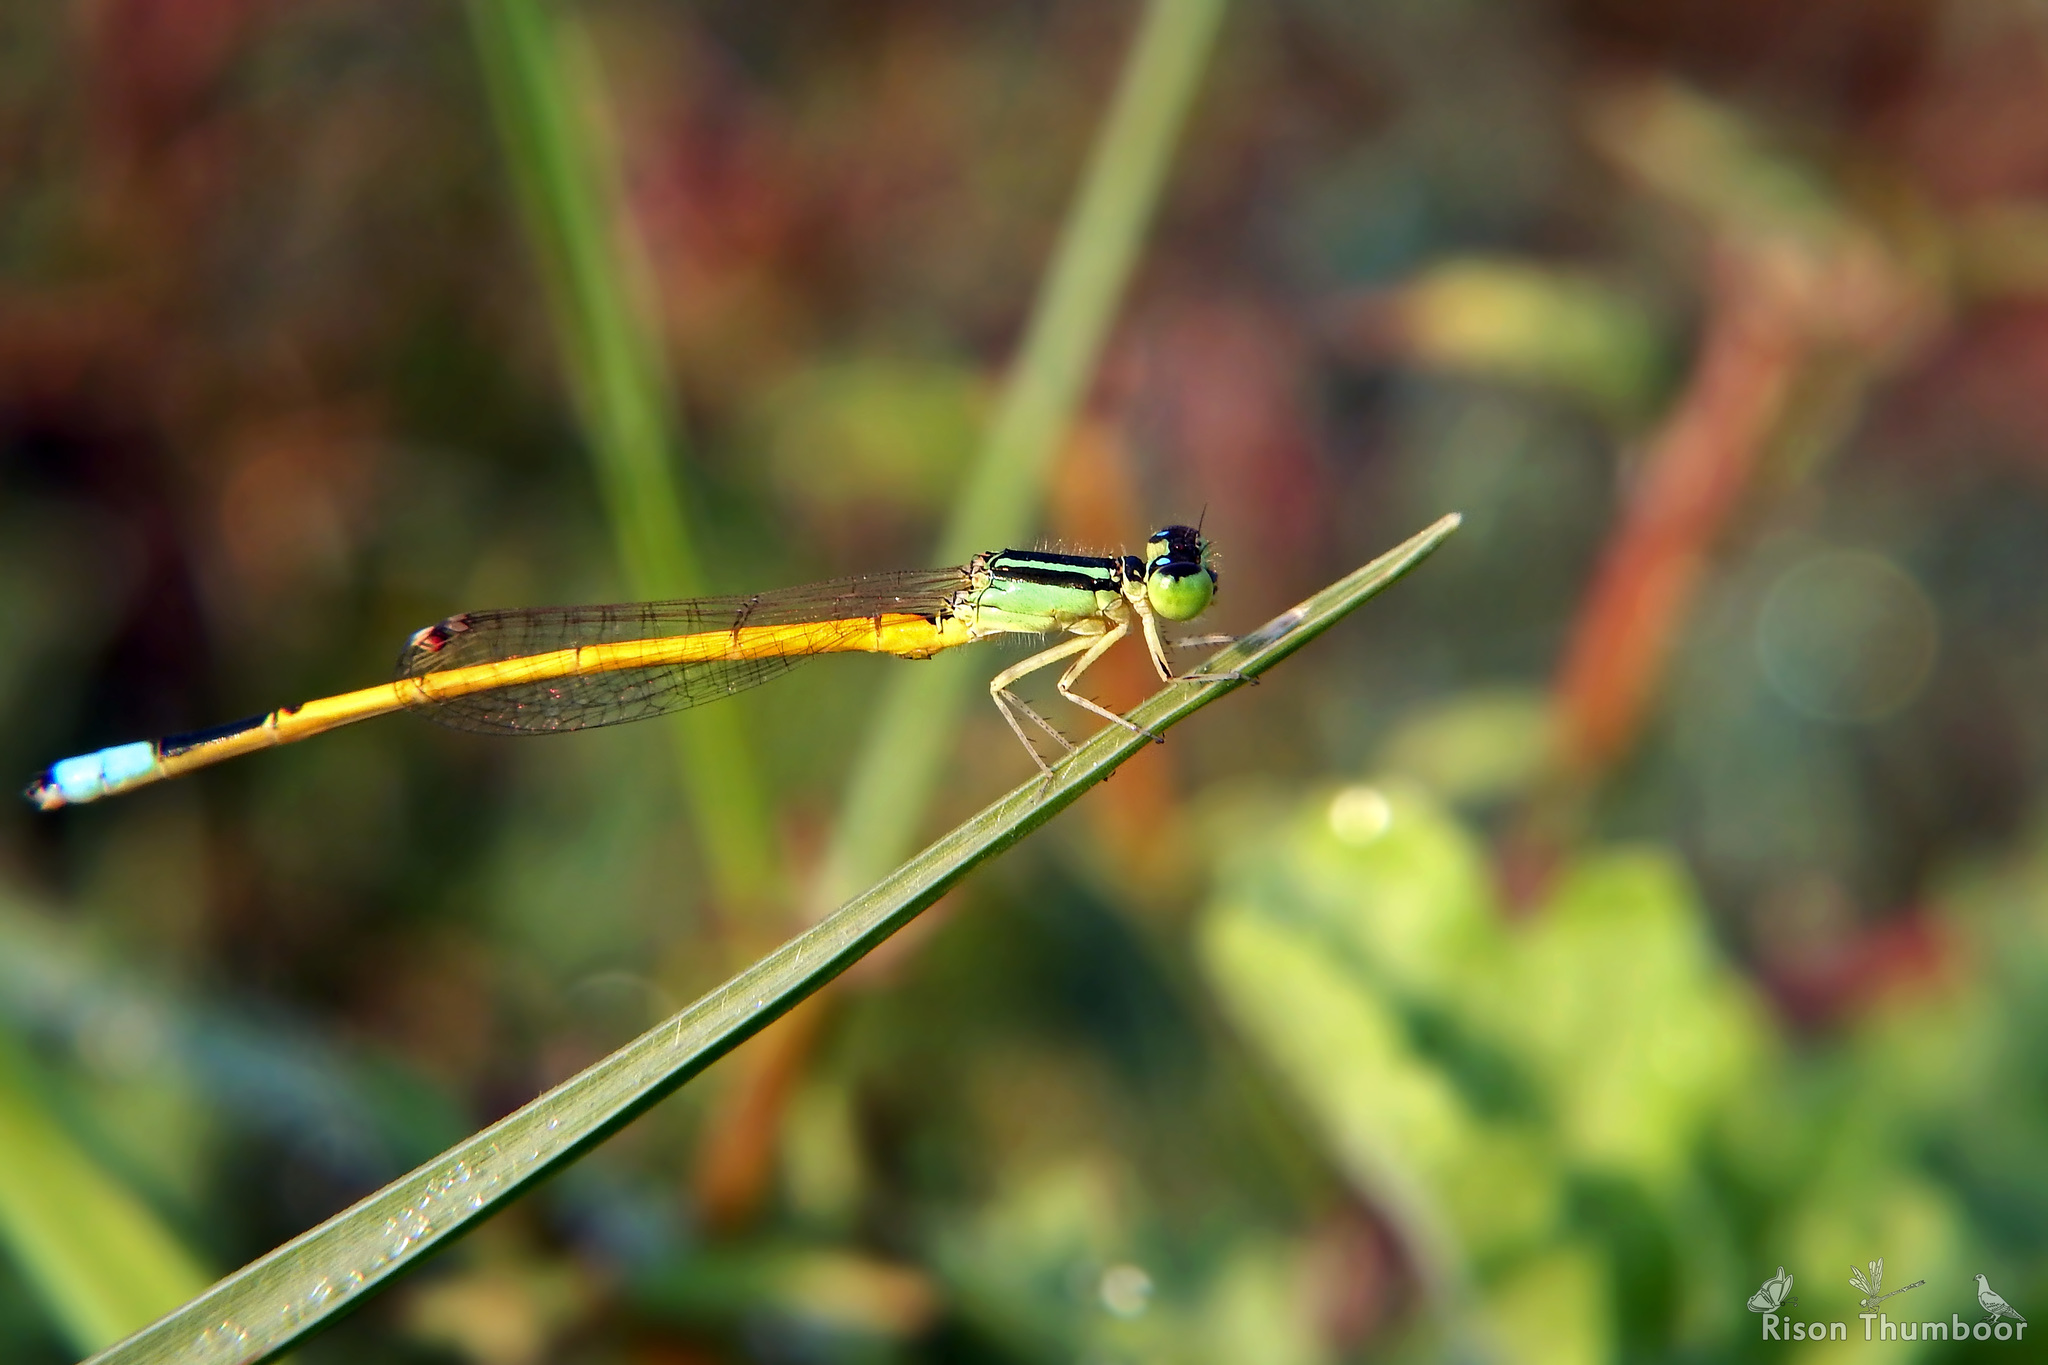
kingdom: Animalia
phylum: Arthropoda
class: Insecta
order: Odonata
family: Coenagrionidae
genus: Ischnura
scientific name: Ischnura rubilio
